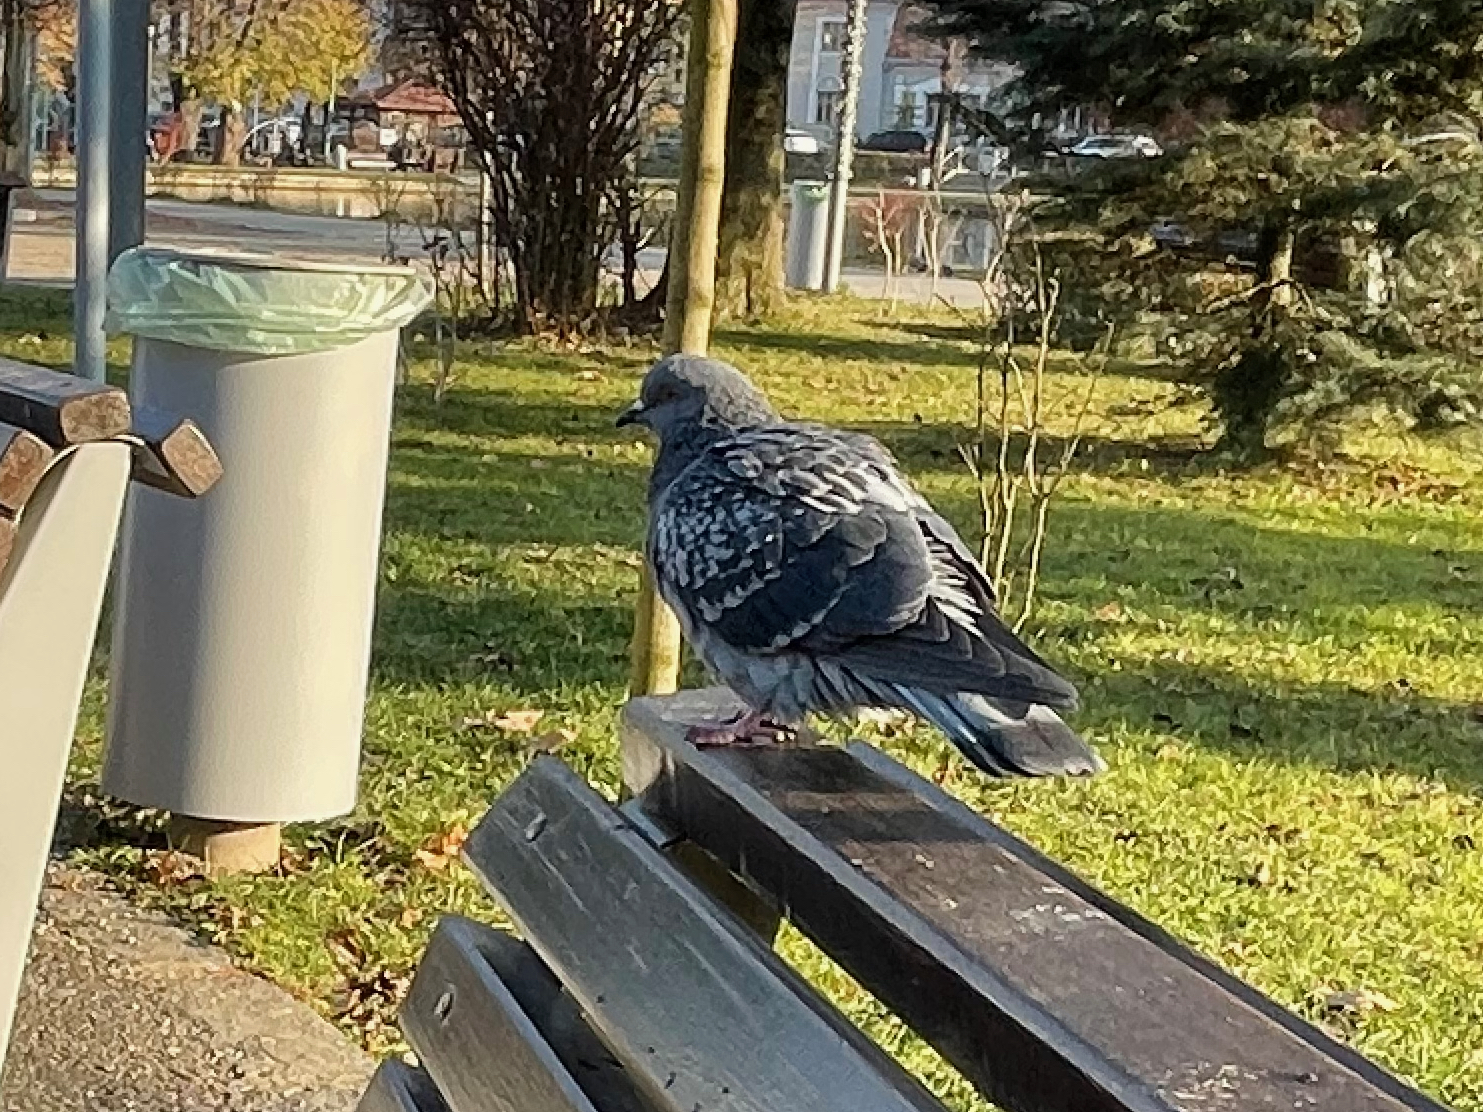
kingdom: Animalia
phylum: Chordata
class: Aves
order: Columbiformes
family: Columbidae
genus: Columba
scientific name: Columba livia
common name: Rock pigeon
